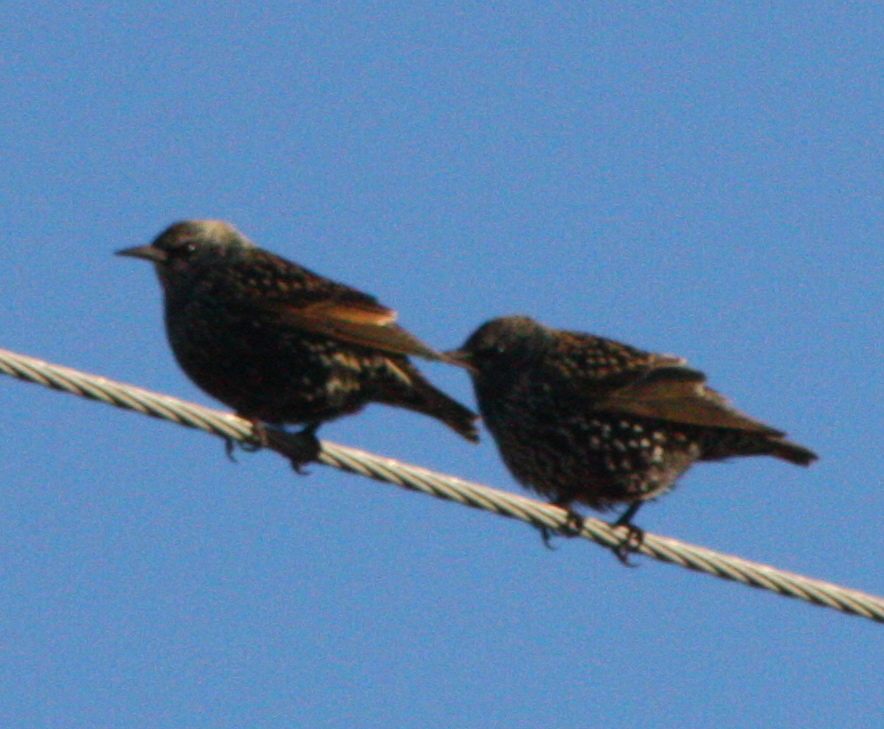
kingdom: Animalia
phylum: Chordata
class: Aves
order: Passeriformes
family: Sturnidae
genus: Sturnus
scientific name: Sturnus vulgaris
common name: Common starling
